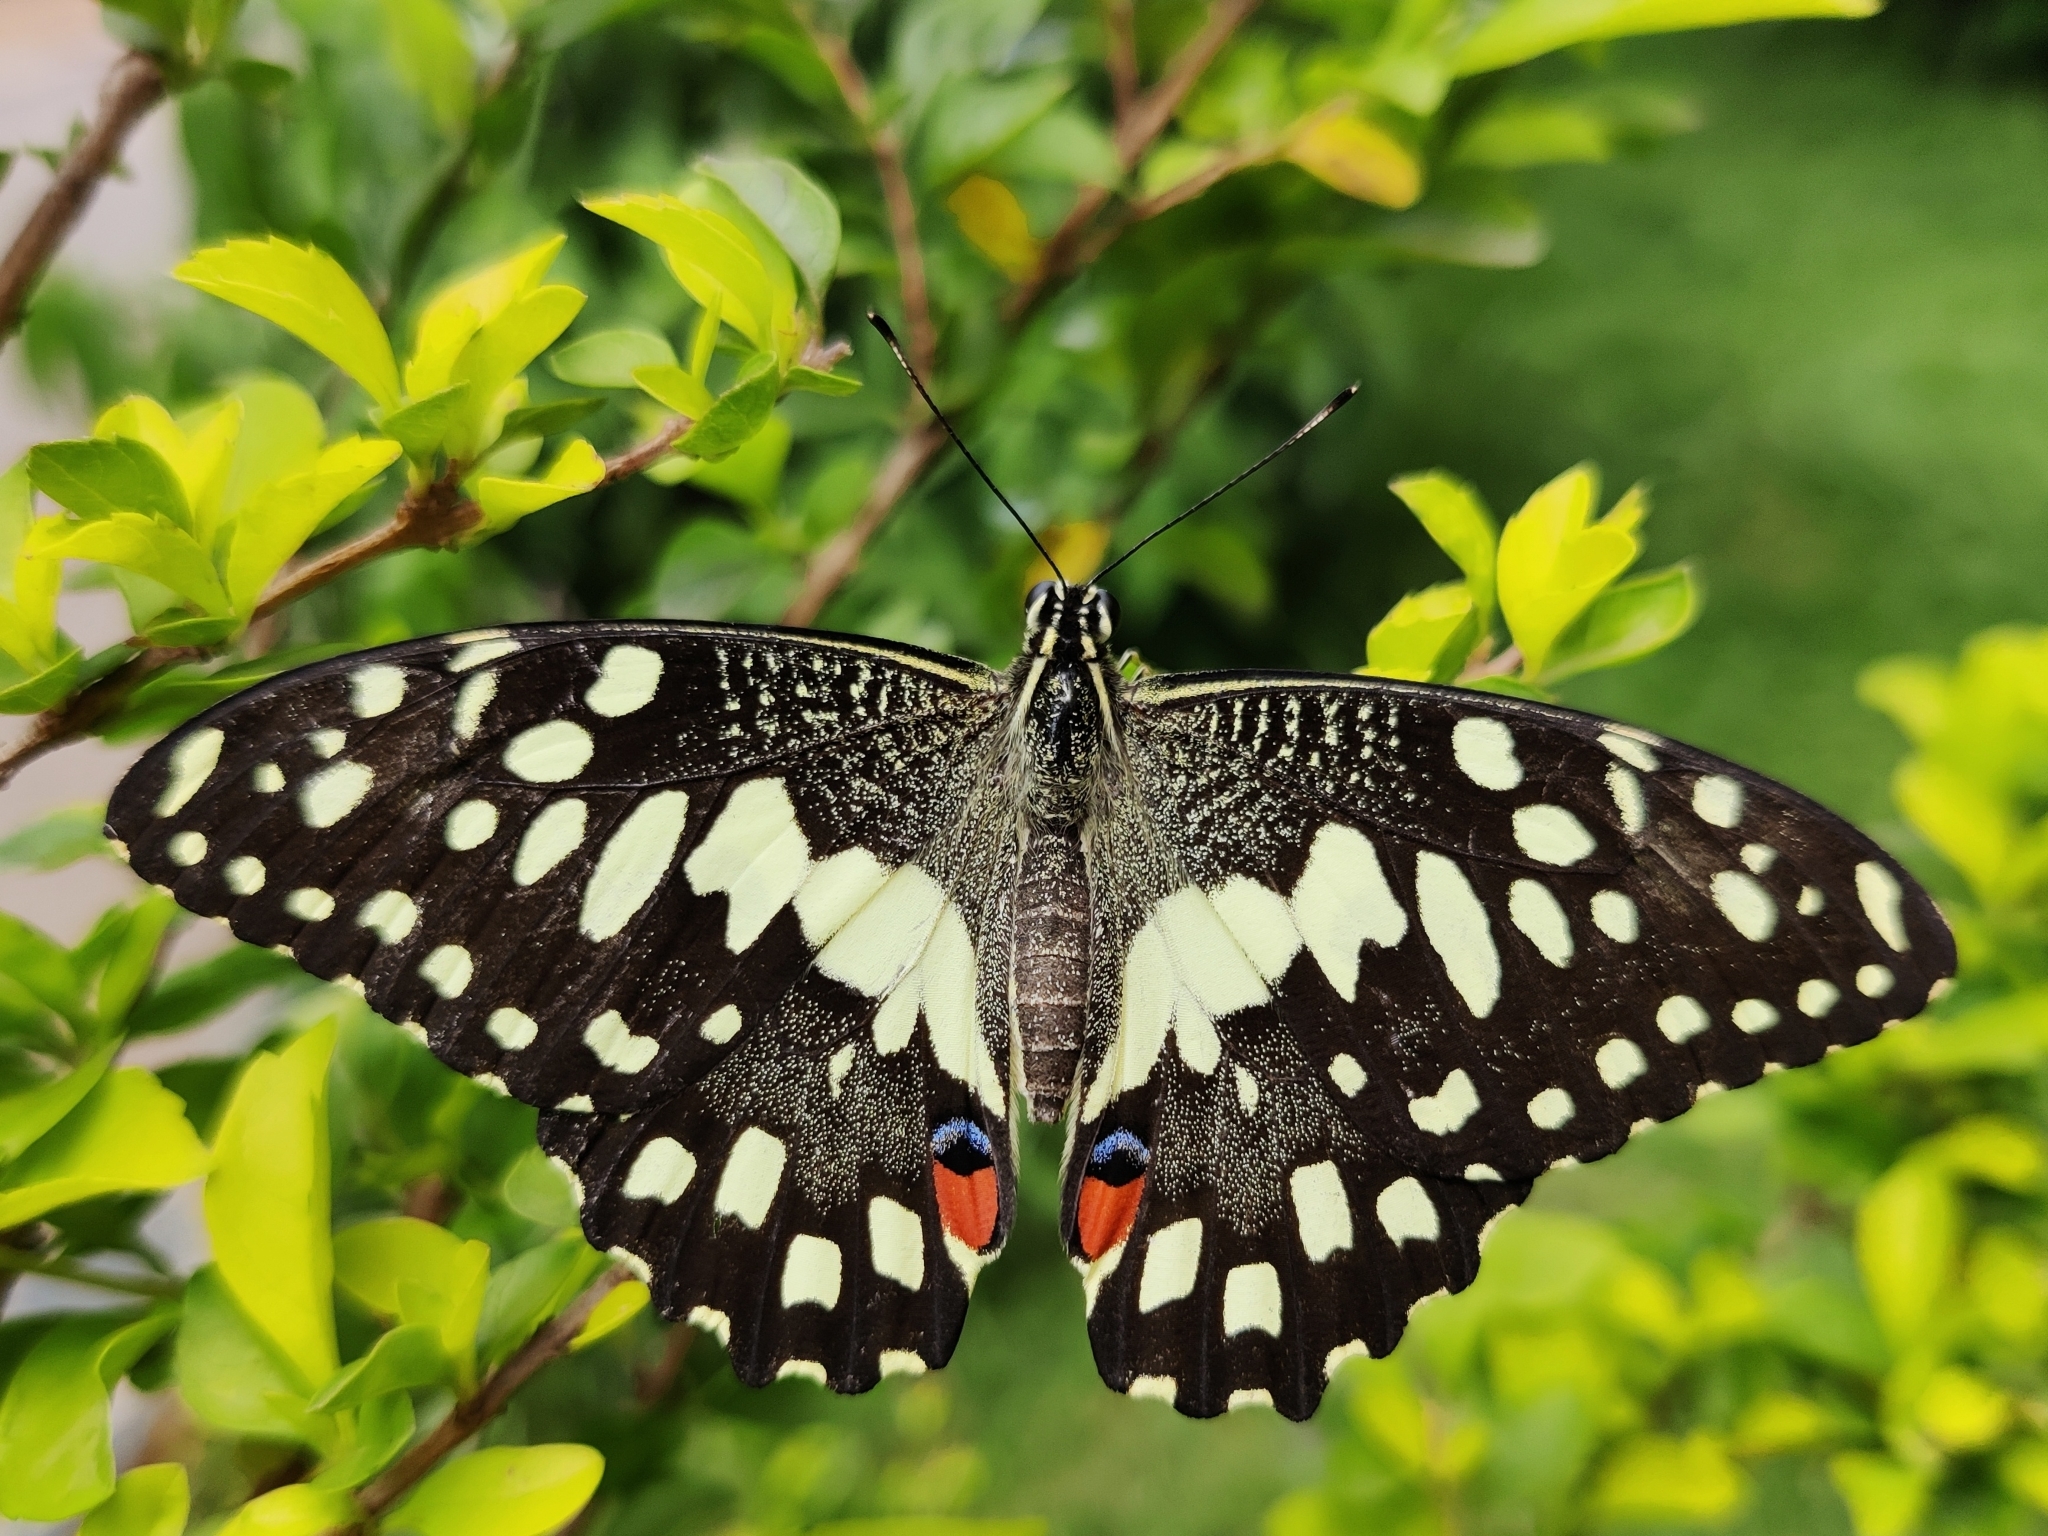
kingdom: Animalia
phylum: Arthropoda
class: Insecta
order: Lepidoptera
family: Papilionidae
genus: Papilio
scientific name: Papilio demoleus
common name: Lime butterfly
